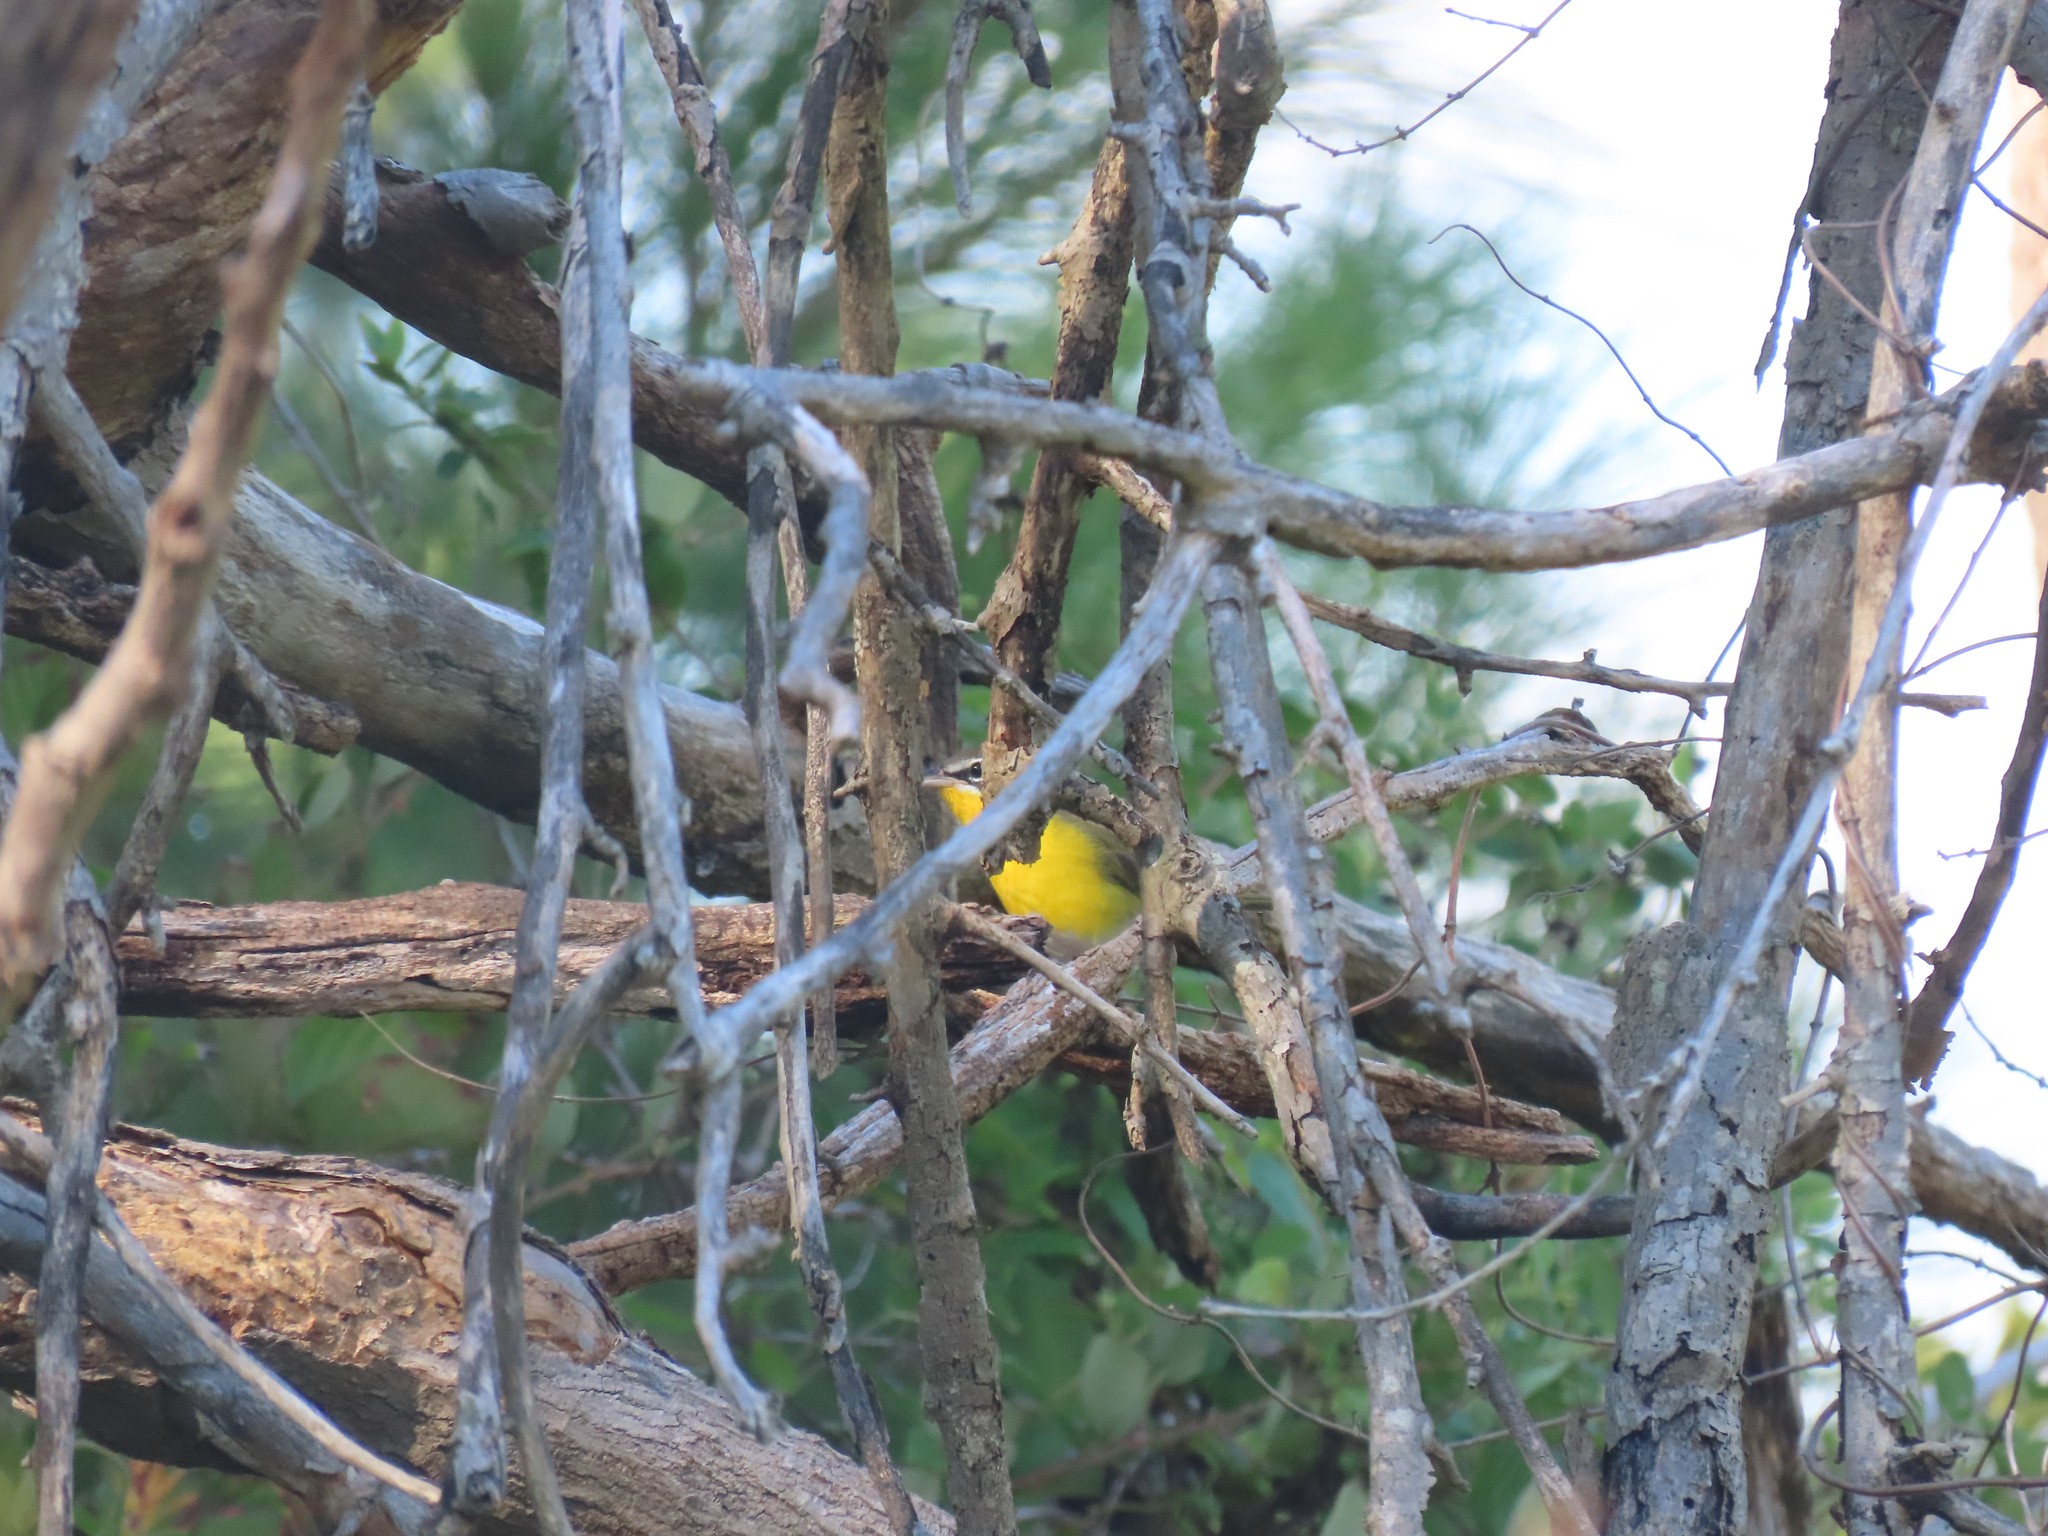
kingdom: Animalia
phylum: Chordata
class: Aves
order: Passeriformes
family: Parulidae
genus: Icteria
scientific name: Icteria virens
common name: Yellow-breasted chat
